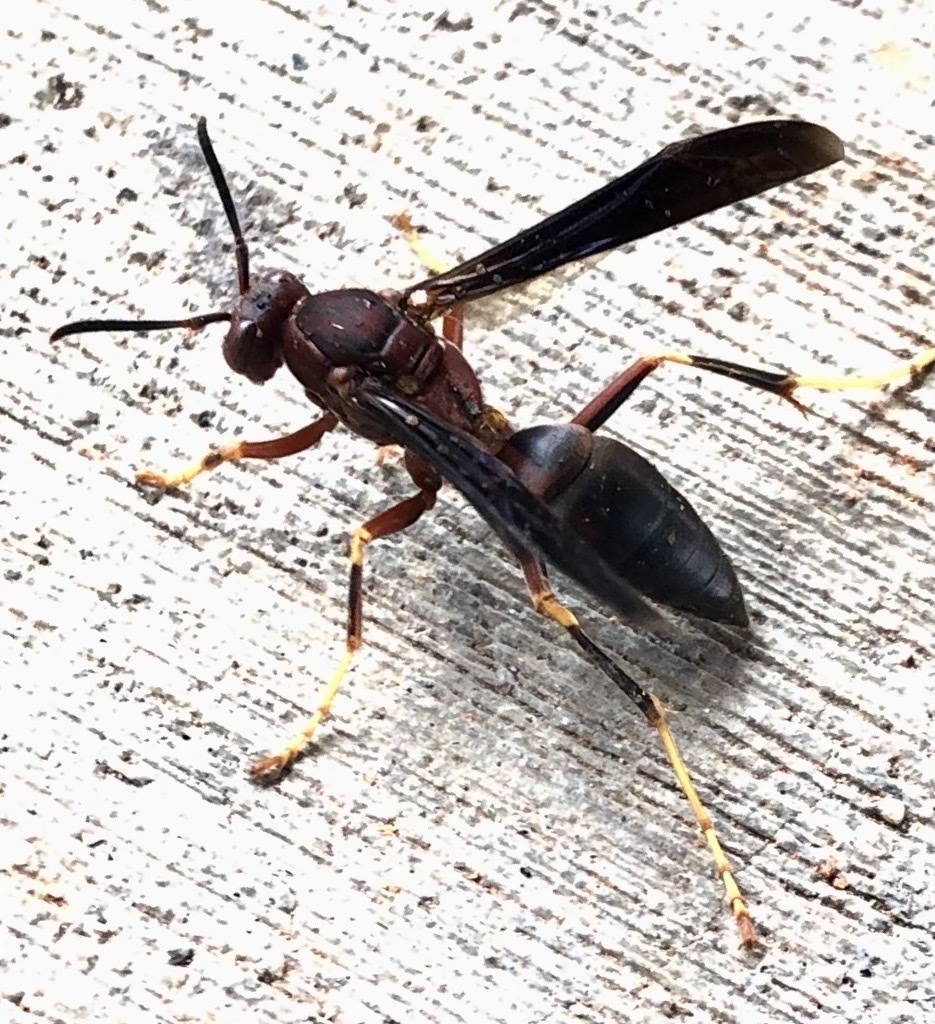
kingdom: Animalia
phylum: Arthropoda
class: Insecta
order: Hymenoptera
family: Eumenidae
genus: Polistes
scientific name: Polistes metricus
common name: Metric paper wasp
